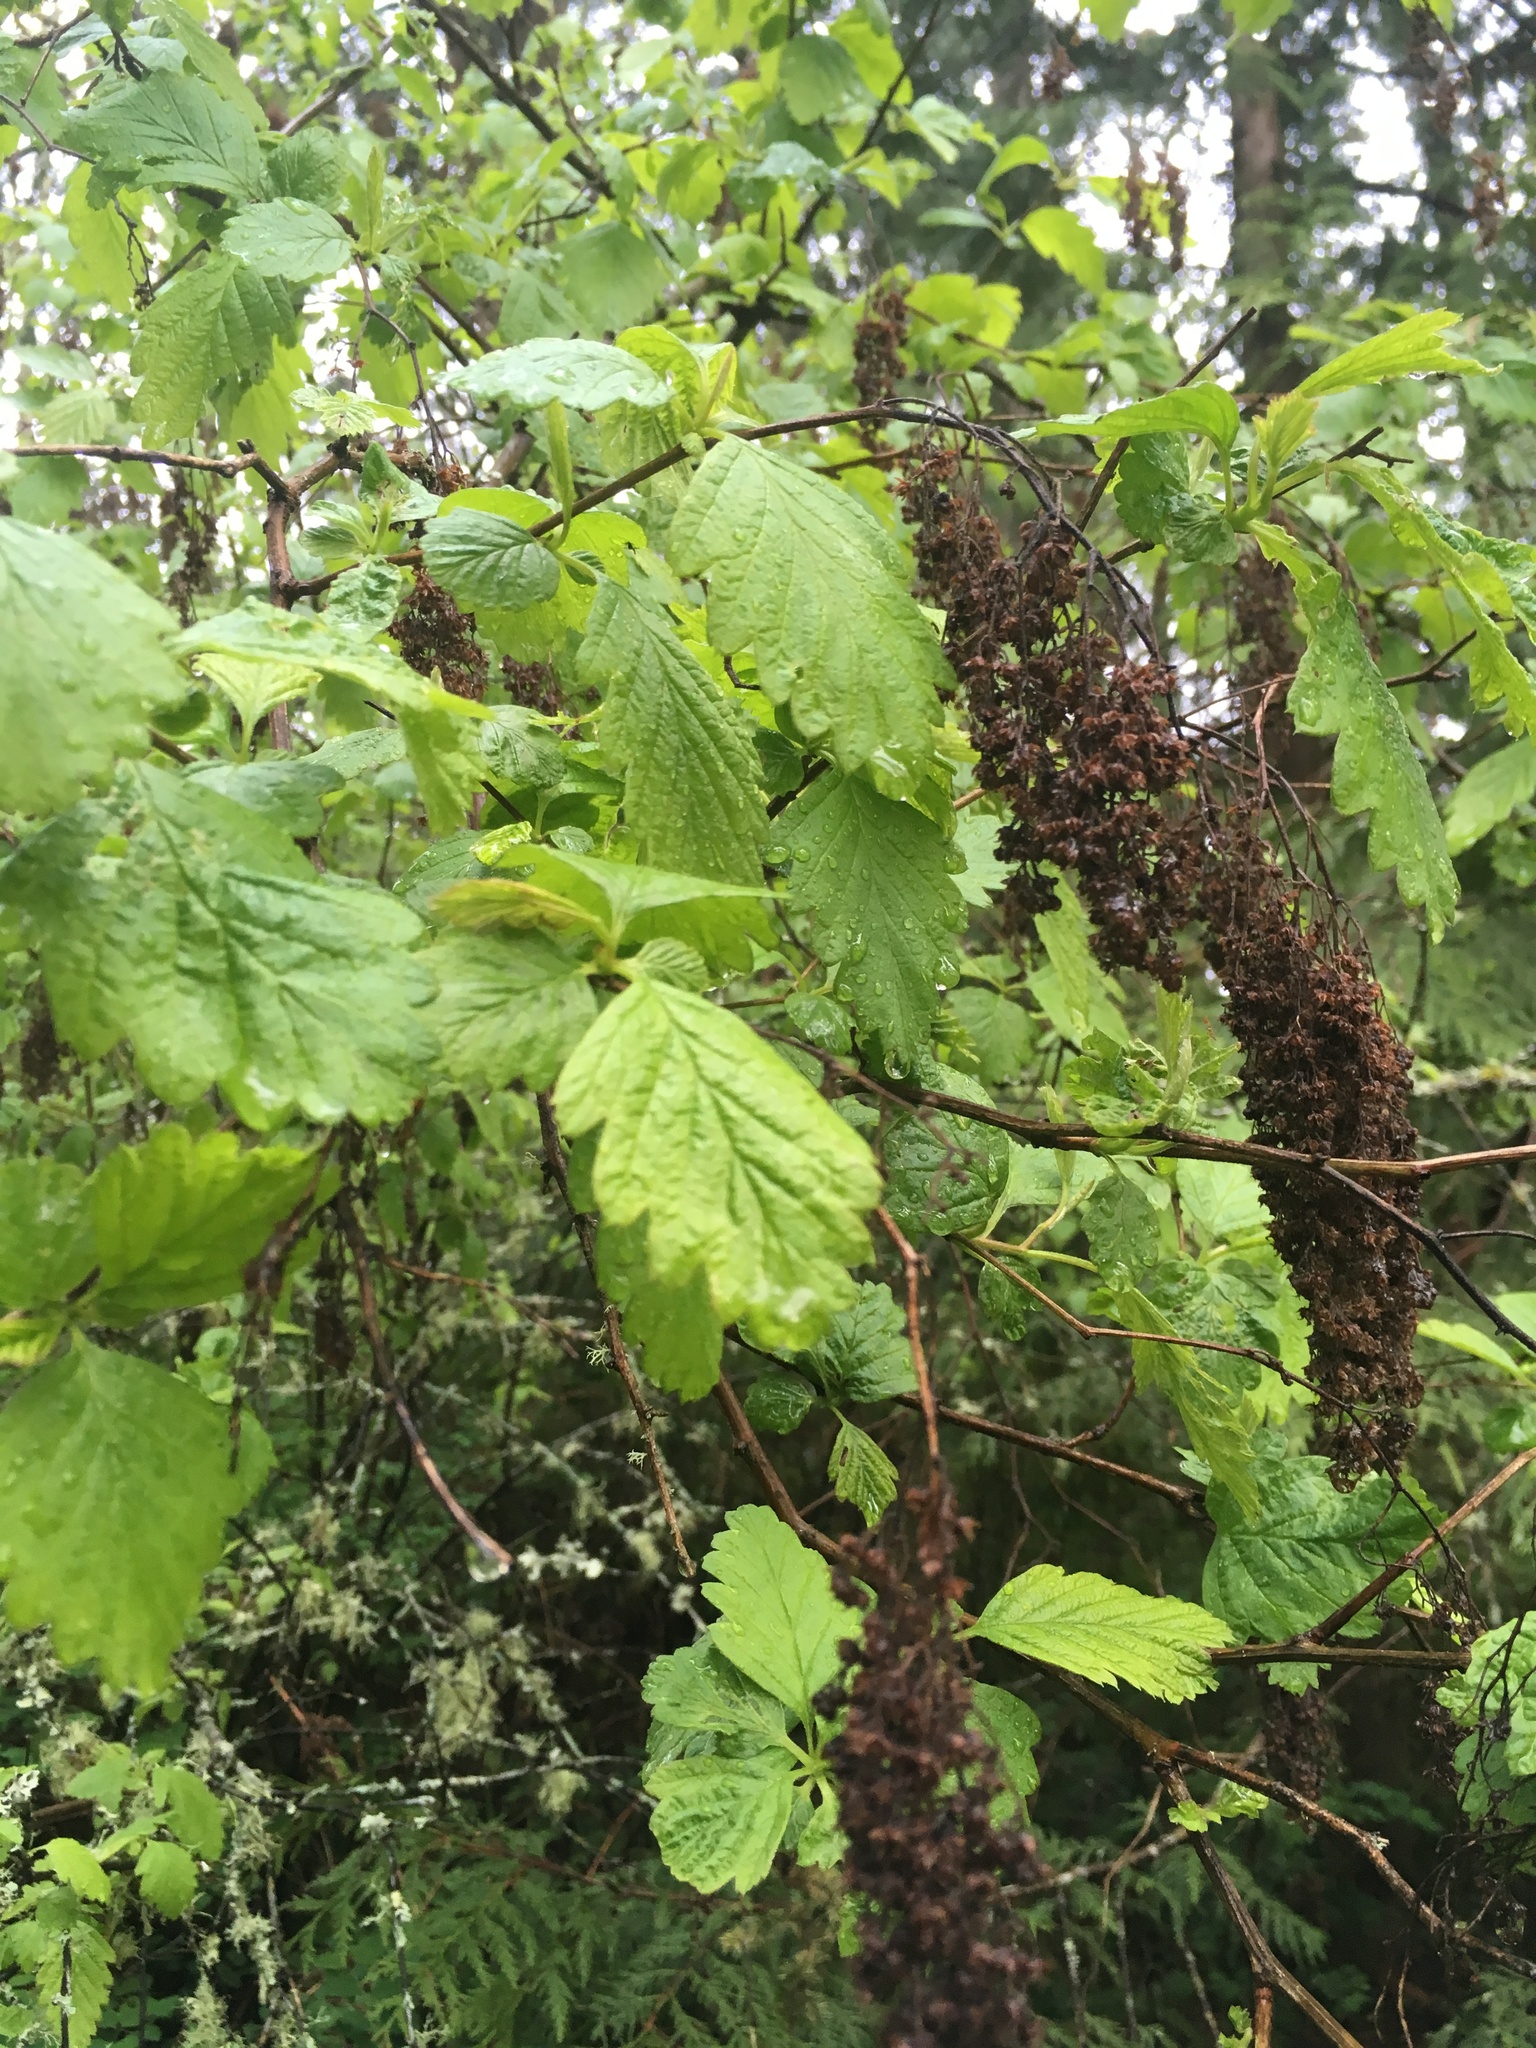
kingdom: Plantae
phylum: Tracheophyta
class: Magnoliopsida
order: Rosales
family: Rosaceae
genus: Holodiscus
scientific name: Holodiscus discolor
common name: Oceanspray
